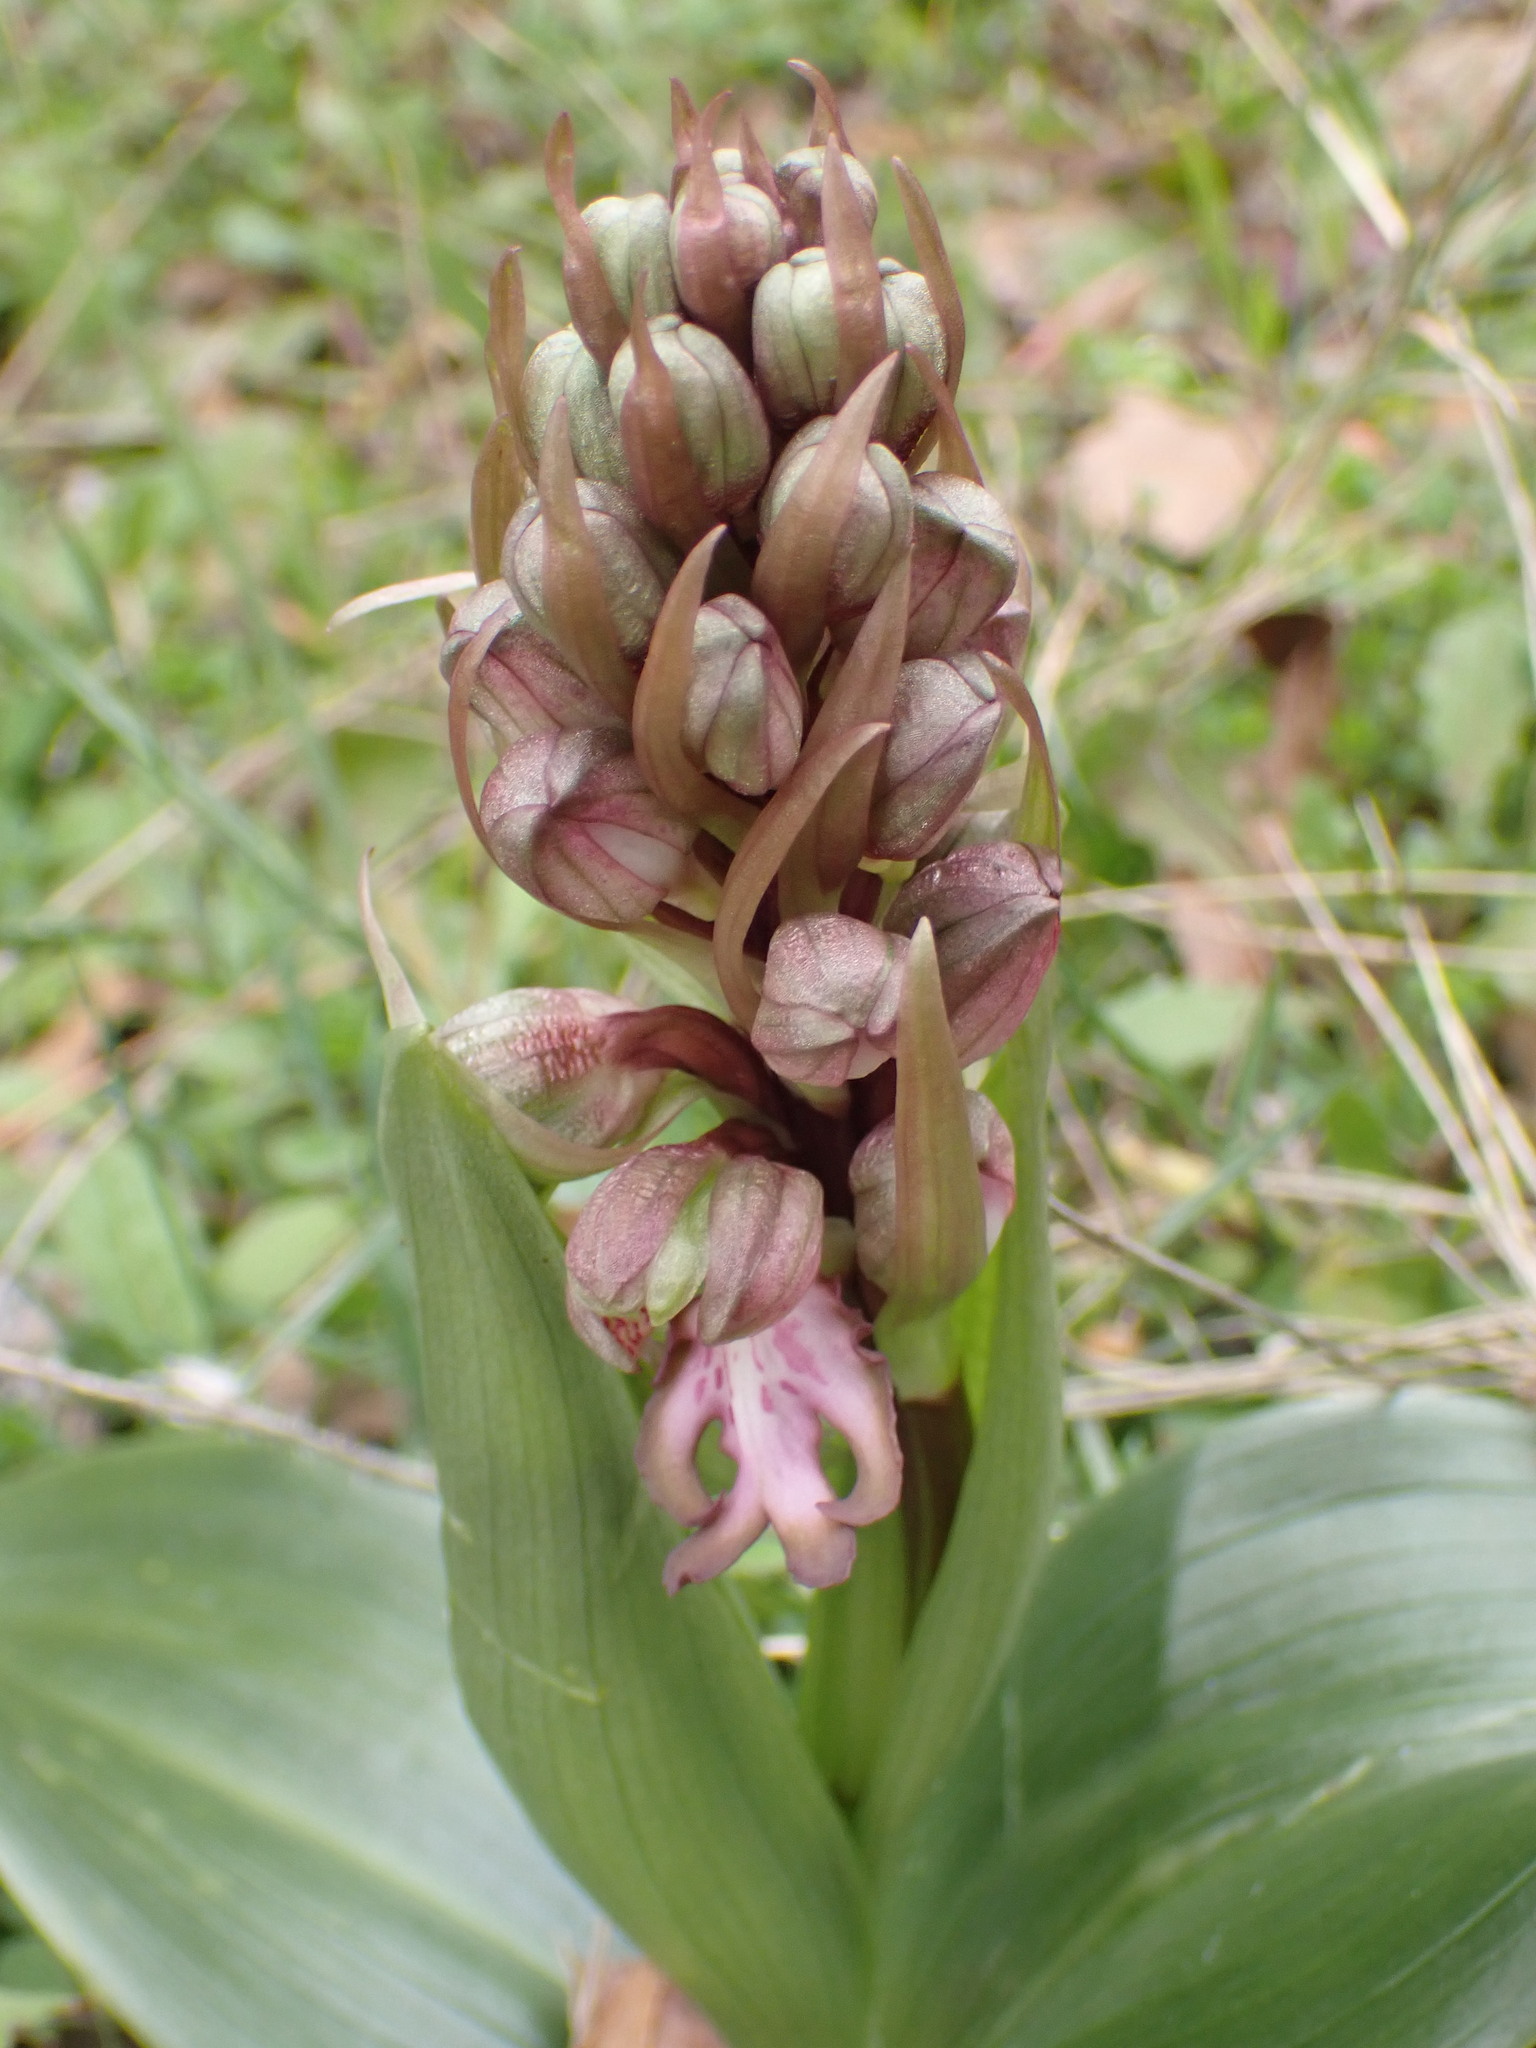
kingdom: Plantae
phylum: Tracheophyta
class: Liliopsida
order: Asparagales
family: Orchidaceae
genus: Himantoglossum
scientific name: Himantoglossum robertianum
